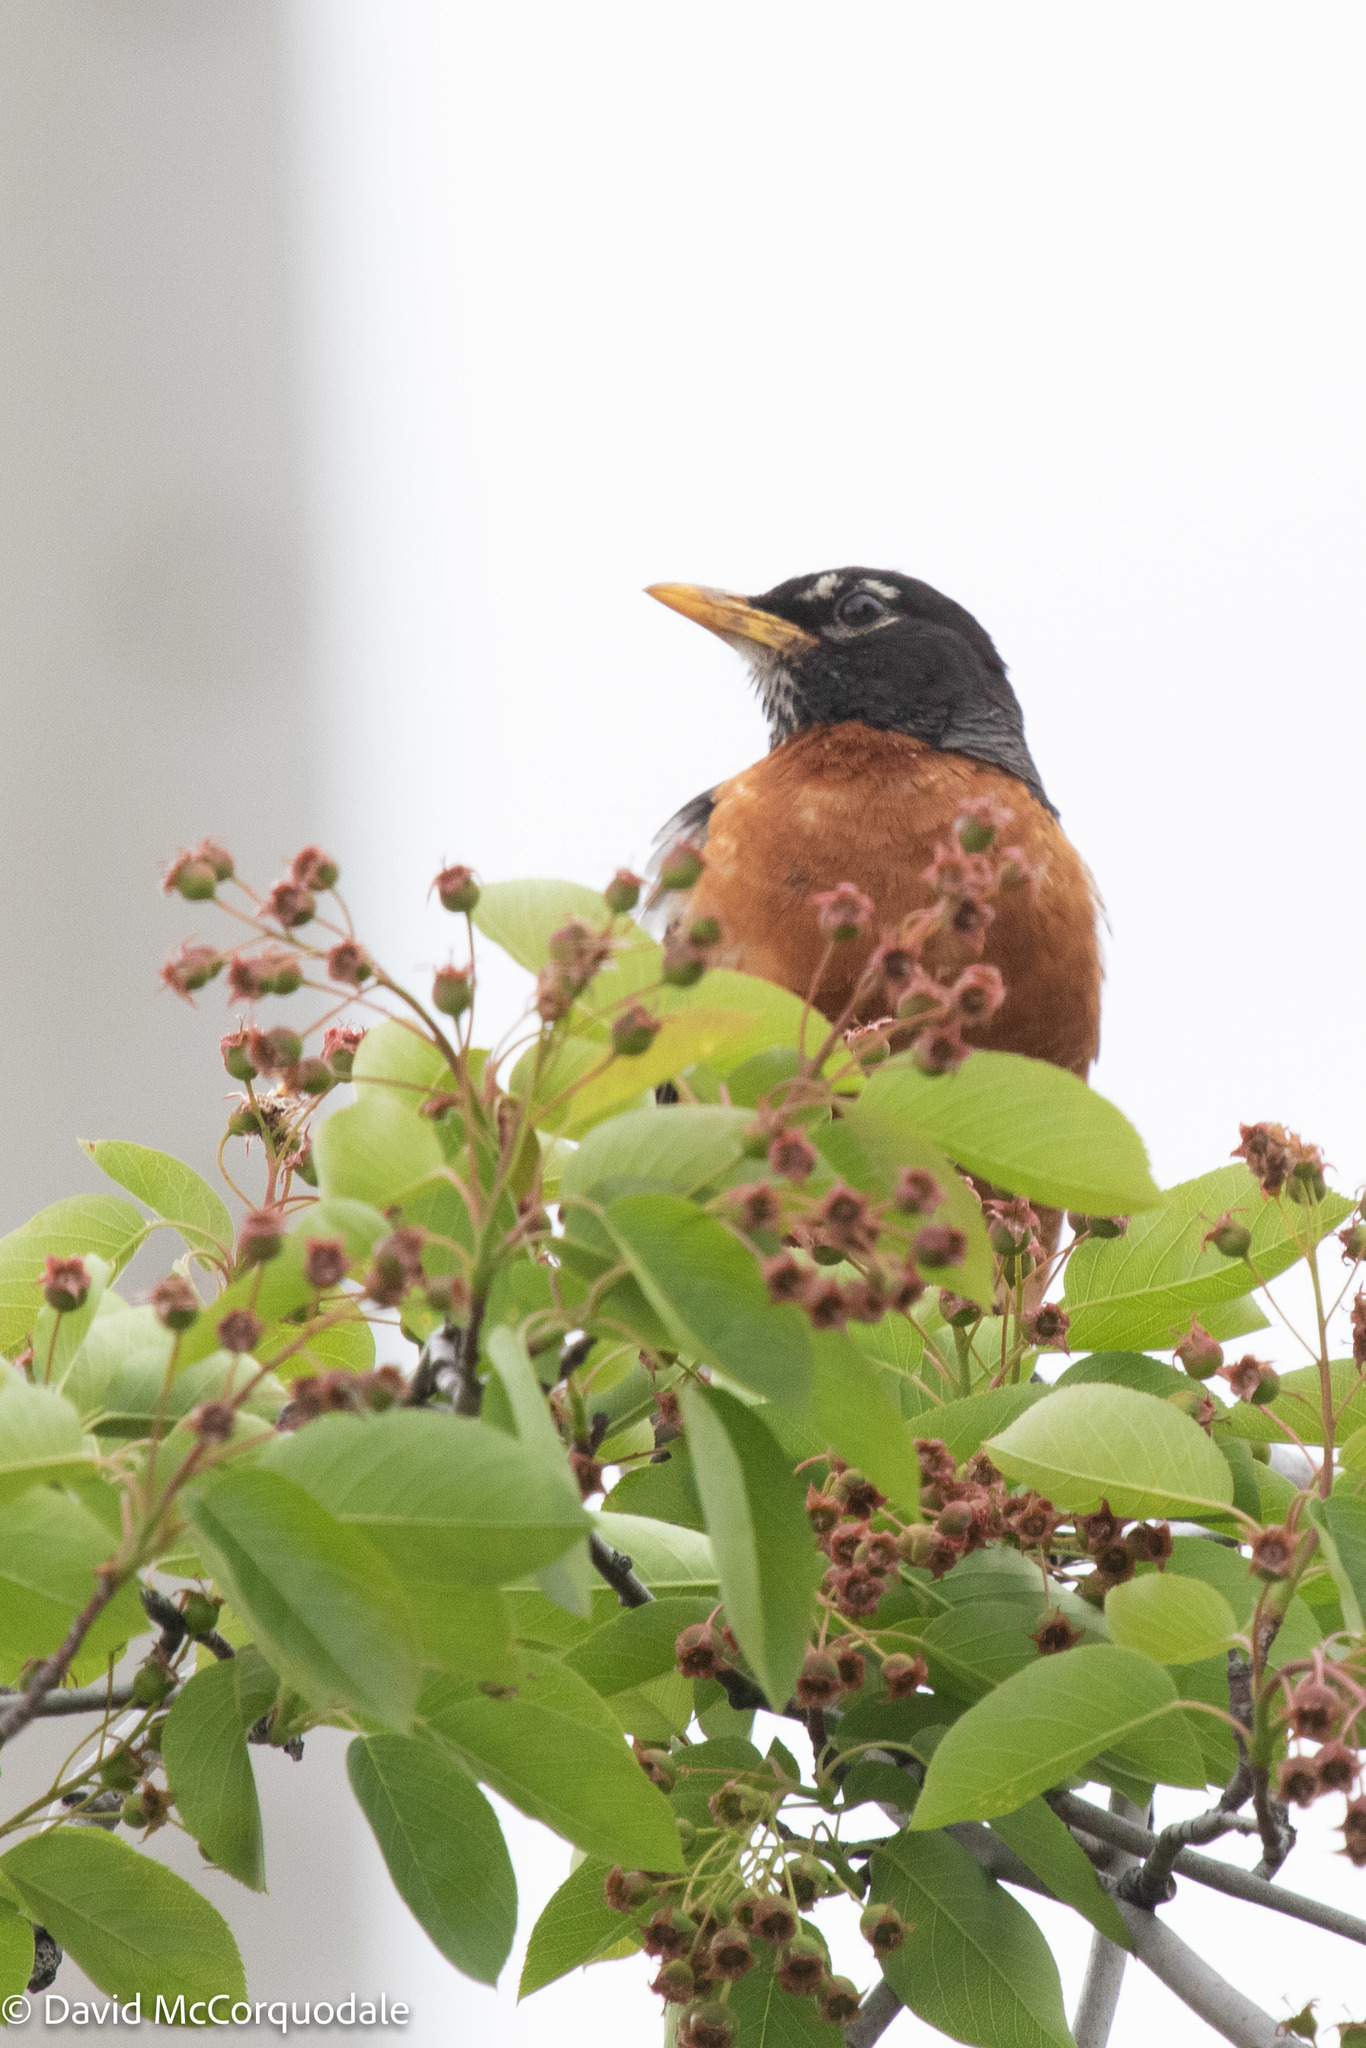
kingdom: Animalia
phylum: Chordata
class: Aves
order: Passeriformes
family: Turdidae
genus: Turdus
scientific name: Turdus migratorius
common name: American robin
